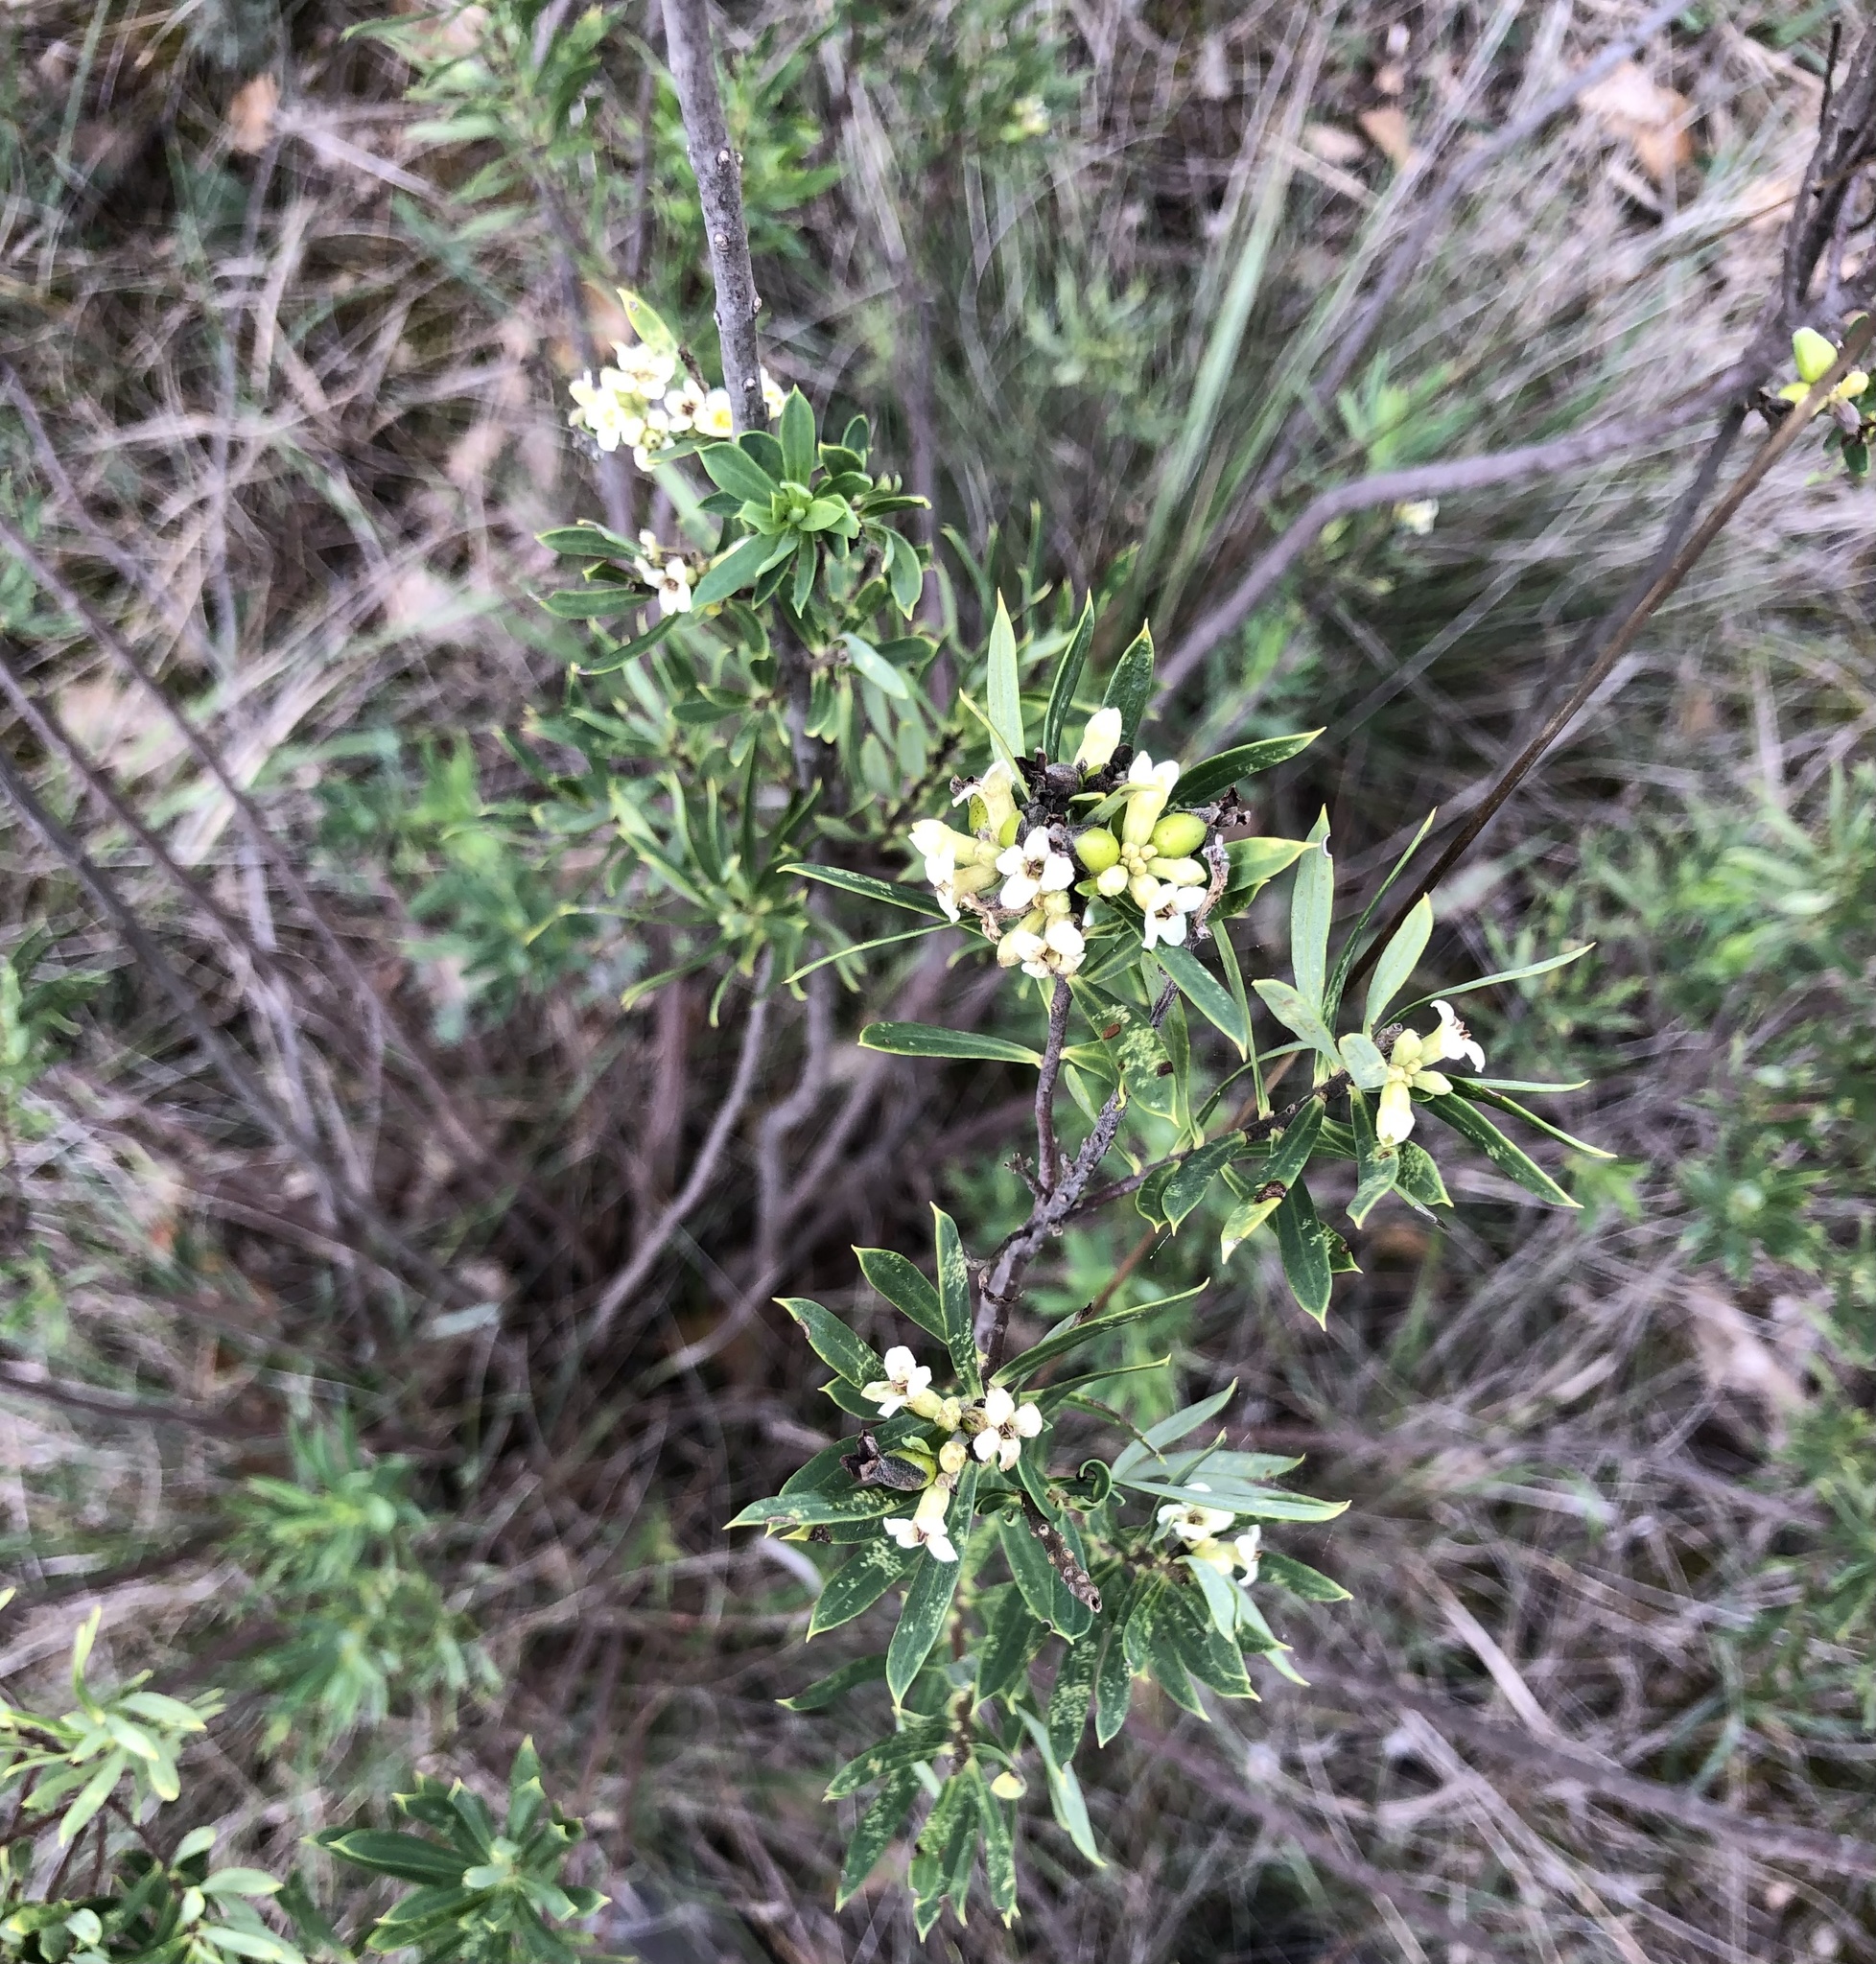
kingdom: Plantae
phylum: Tracheophyta
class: Magnoliopsida
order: Malvales
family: Thymelaeaceae
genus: Daphne
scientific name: Daphne gnidium
